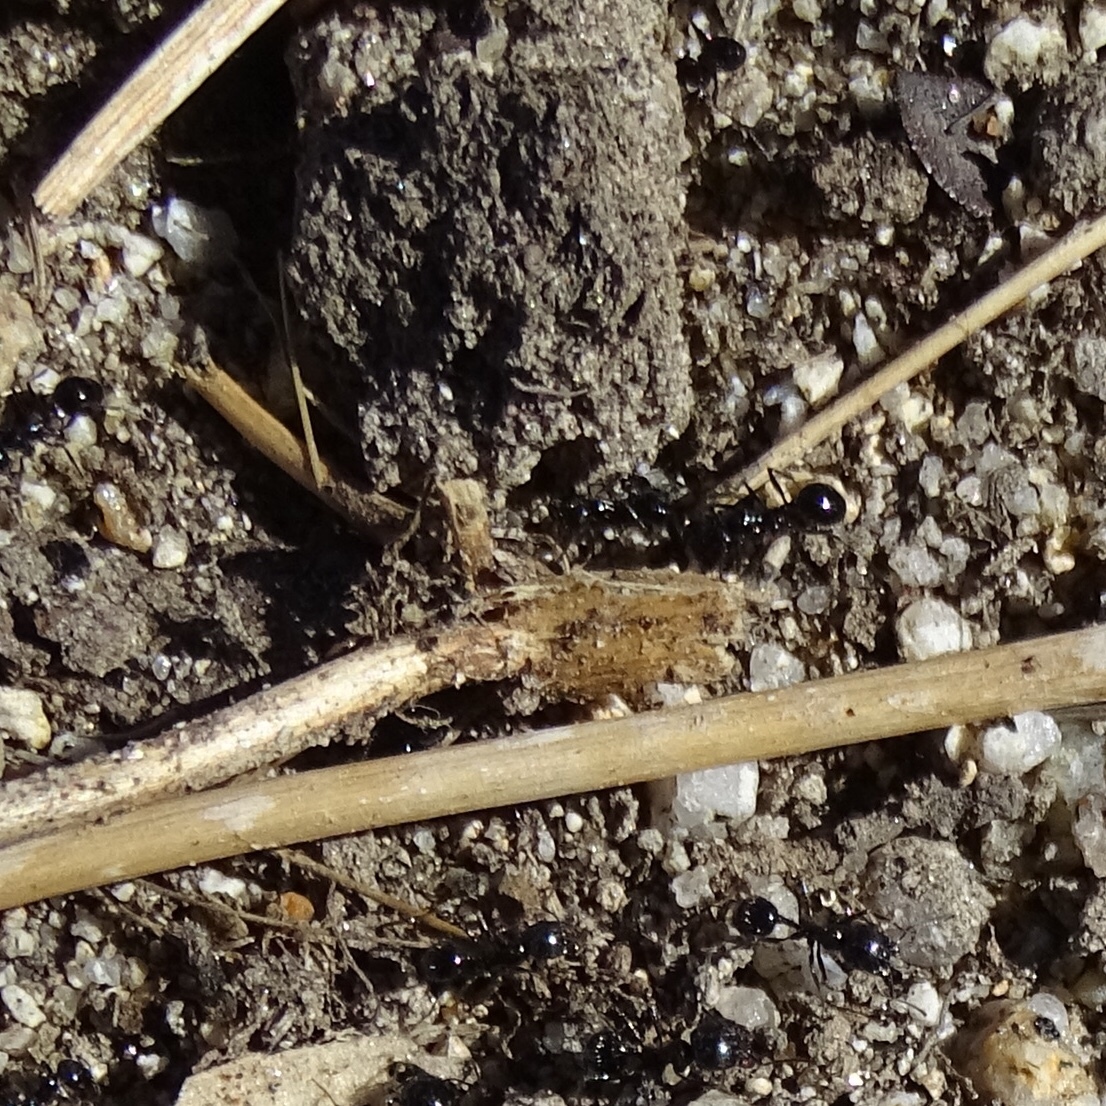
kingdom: Animalia
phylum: Arthropoda
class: Insecta
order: Hymenoptera
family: Formicidae
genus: Messor
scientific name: Messor pergandei
